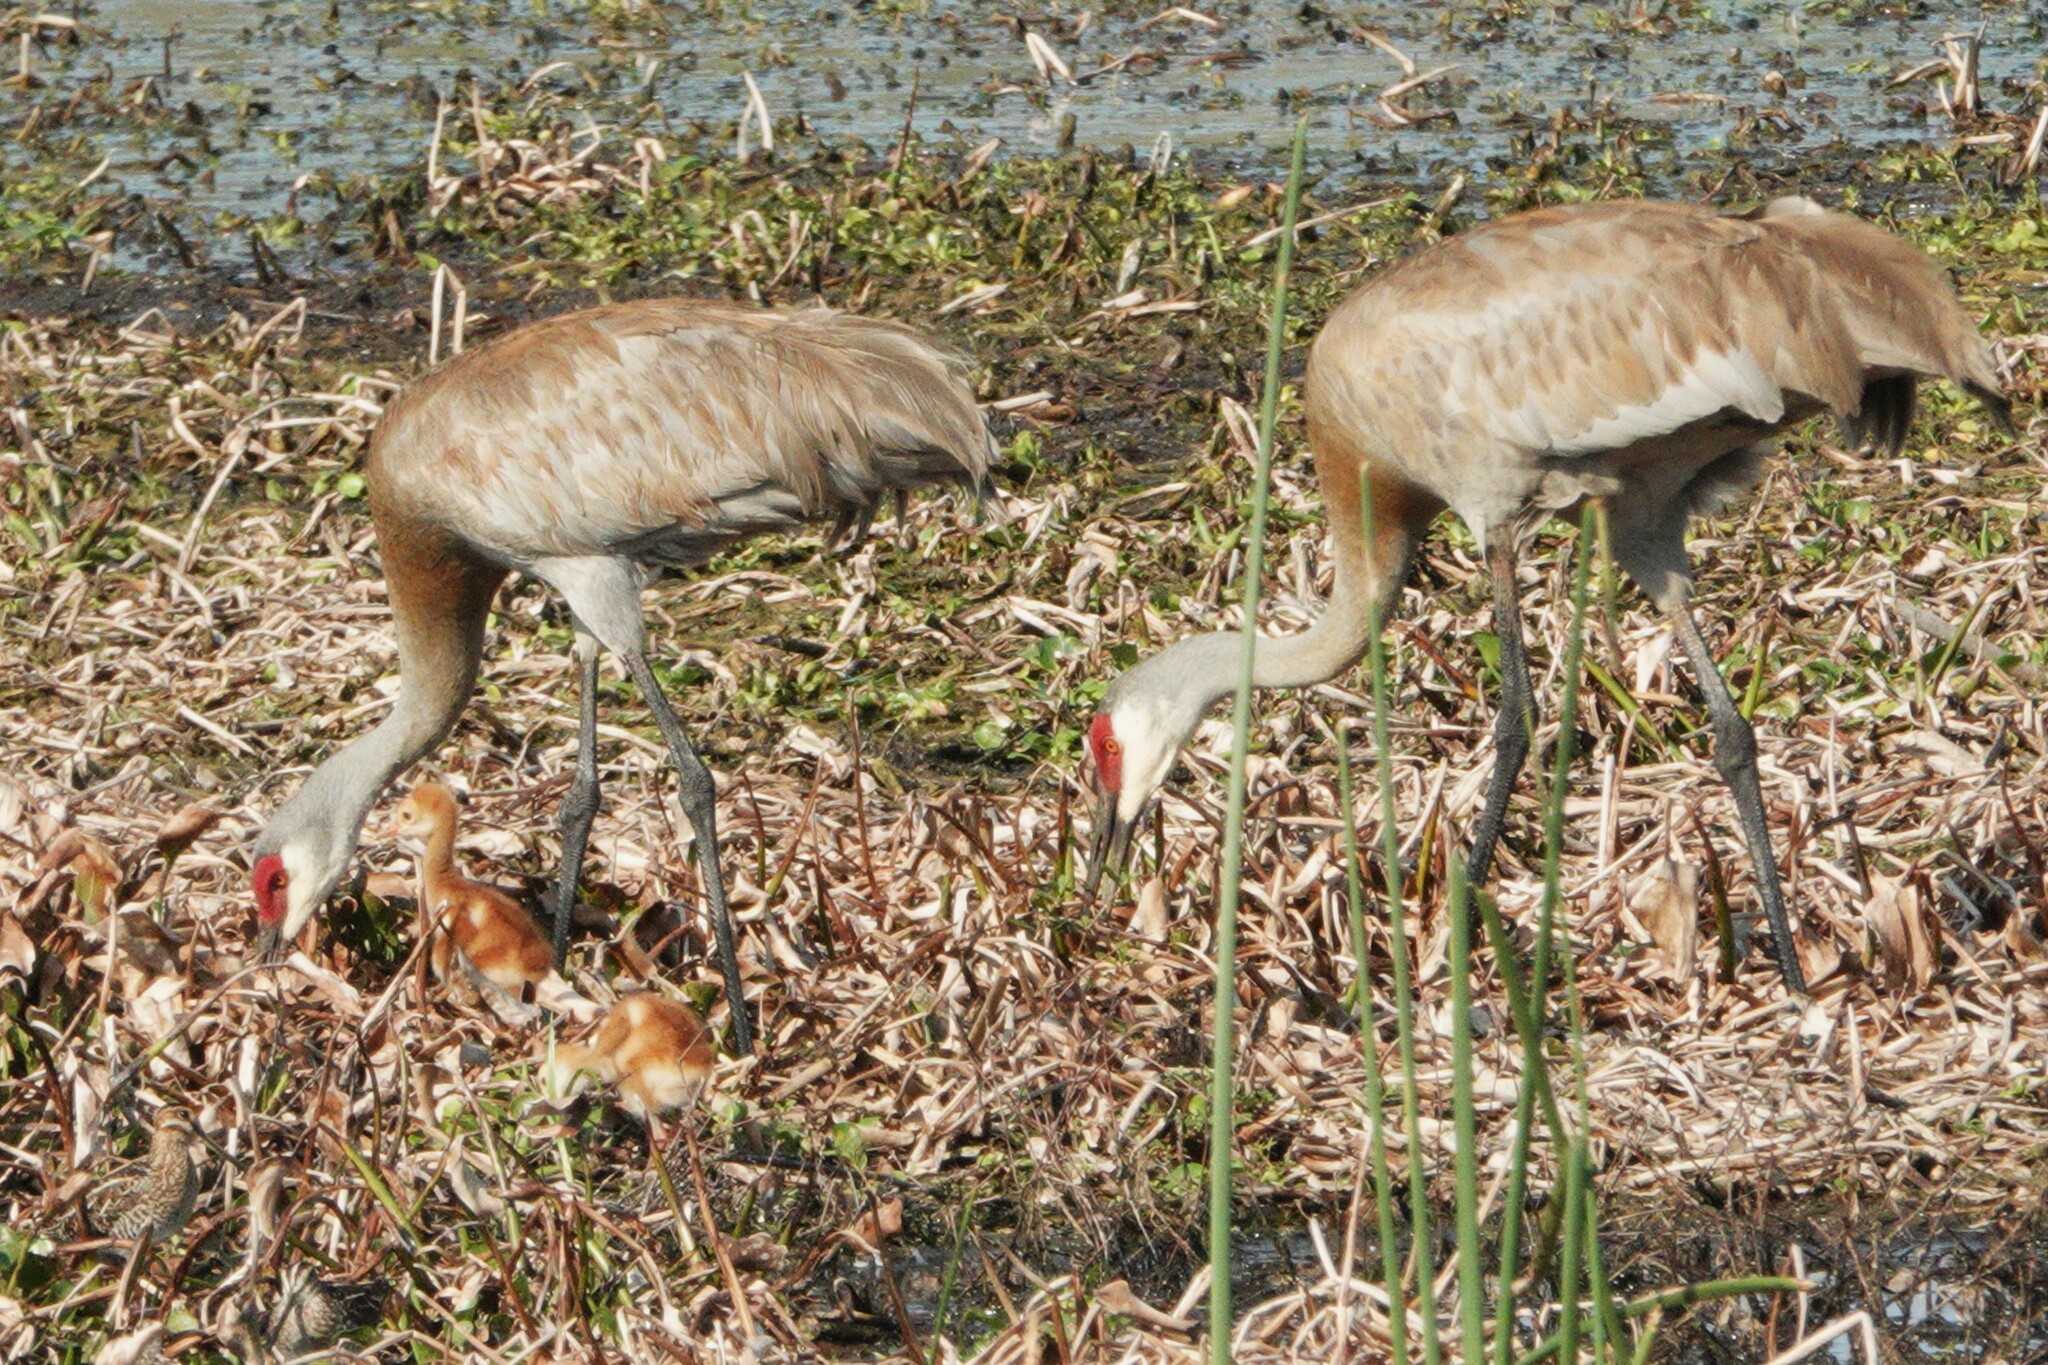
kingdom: Animalia
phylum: Chordata
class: Aves
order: Gruiformes
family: Gruidae
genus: Grus
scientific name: Grus canadensis
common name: Sandhill crane
